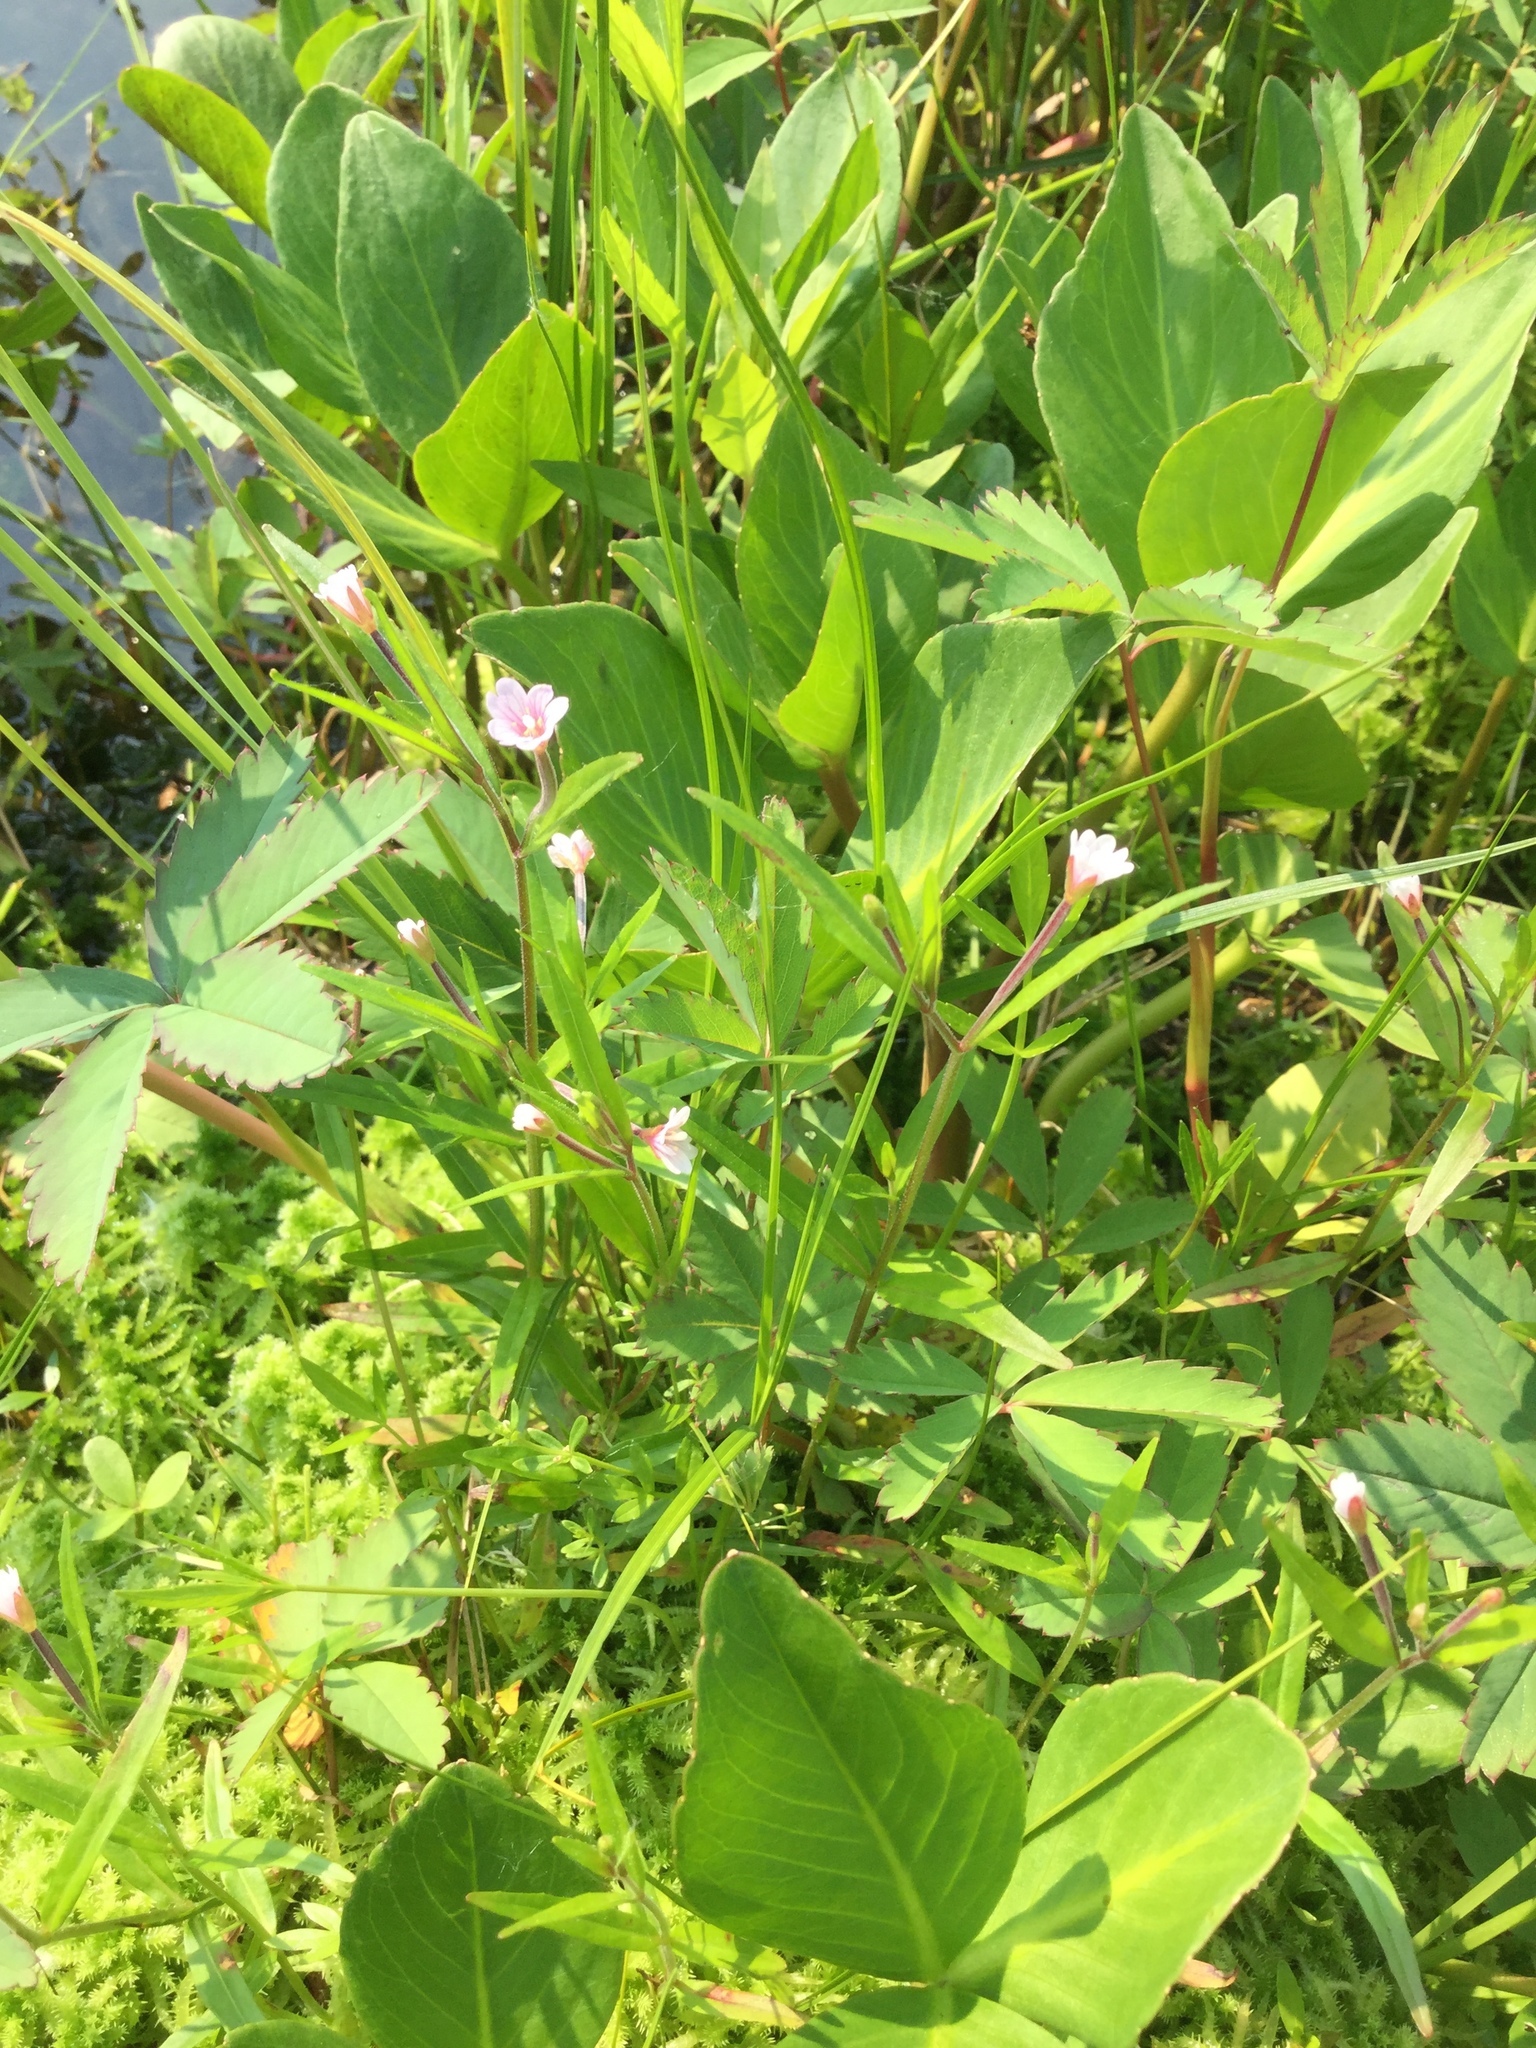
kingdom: Plantae
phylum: Tracheophyta
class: Magnoliopsida
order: Myrtales
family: Onagraceae
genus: Epilobium
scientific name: Epilobium palustre
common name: Marsh willowherb
